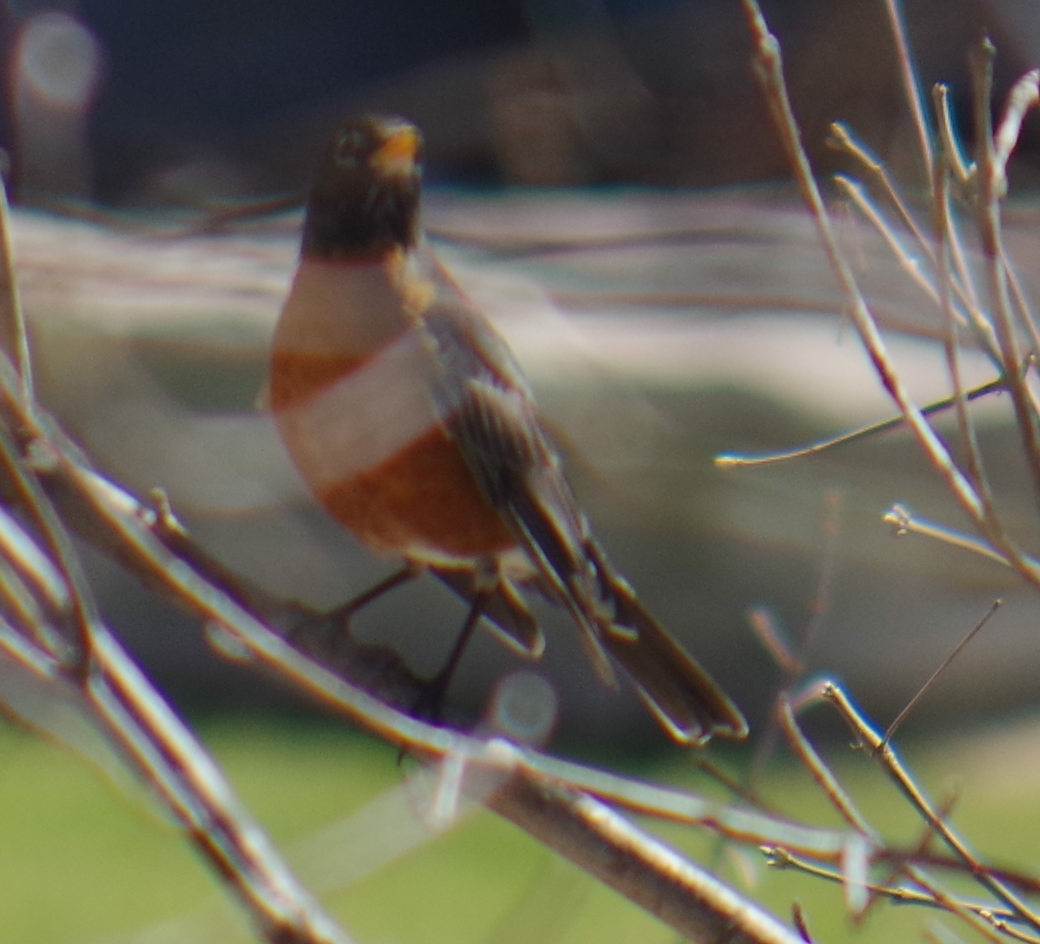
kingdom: Animalia
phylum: Chordata
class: Aves
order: Passeriformes
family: Turdidae
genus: Turdus
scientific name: Turdus migratorius
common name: American robin
